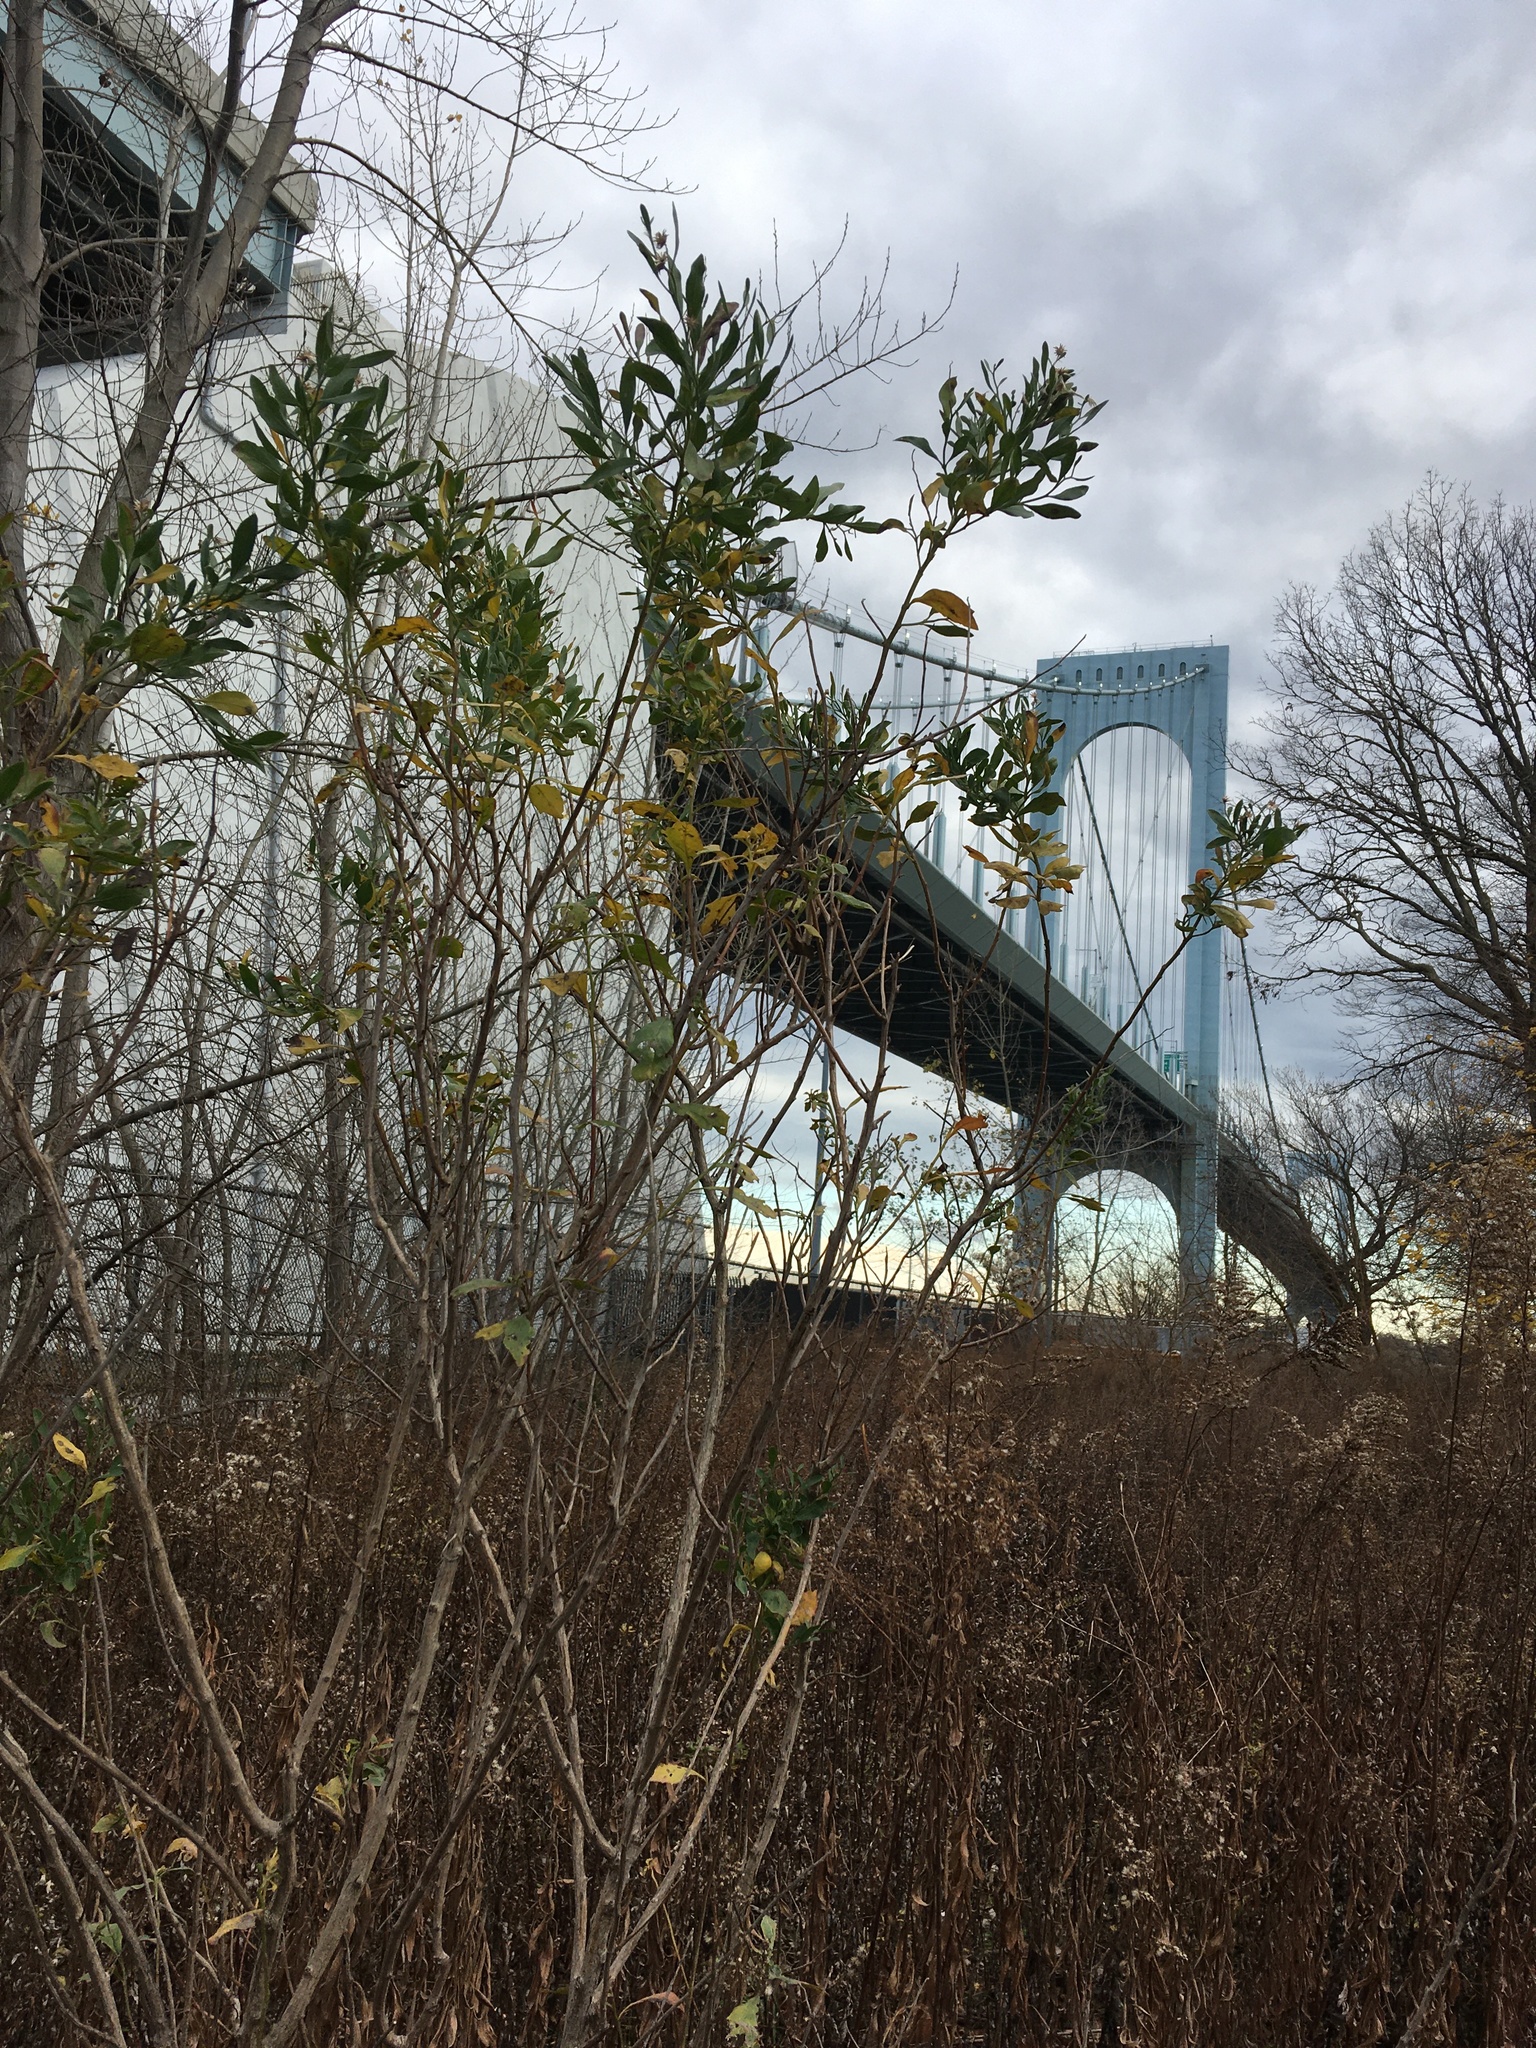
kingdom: Plantae
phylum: Tracheophyta
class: Magnoliopsida
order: Asterales
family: Asteraceae
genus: Baccharis
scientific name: Baccharis halimifolia
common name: Eastern baccharis
